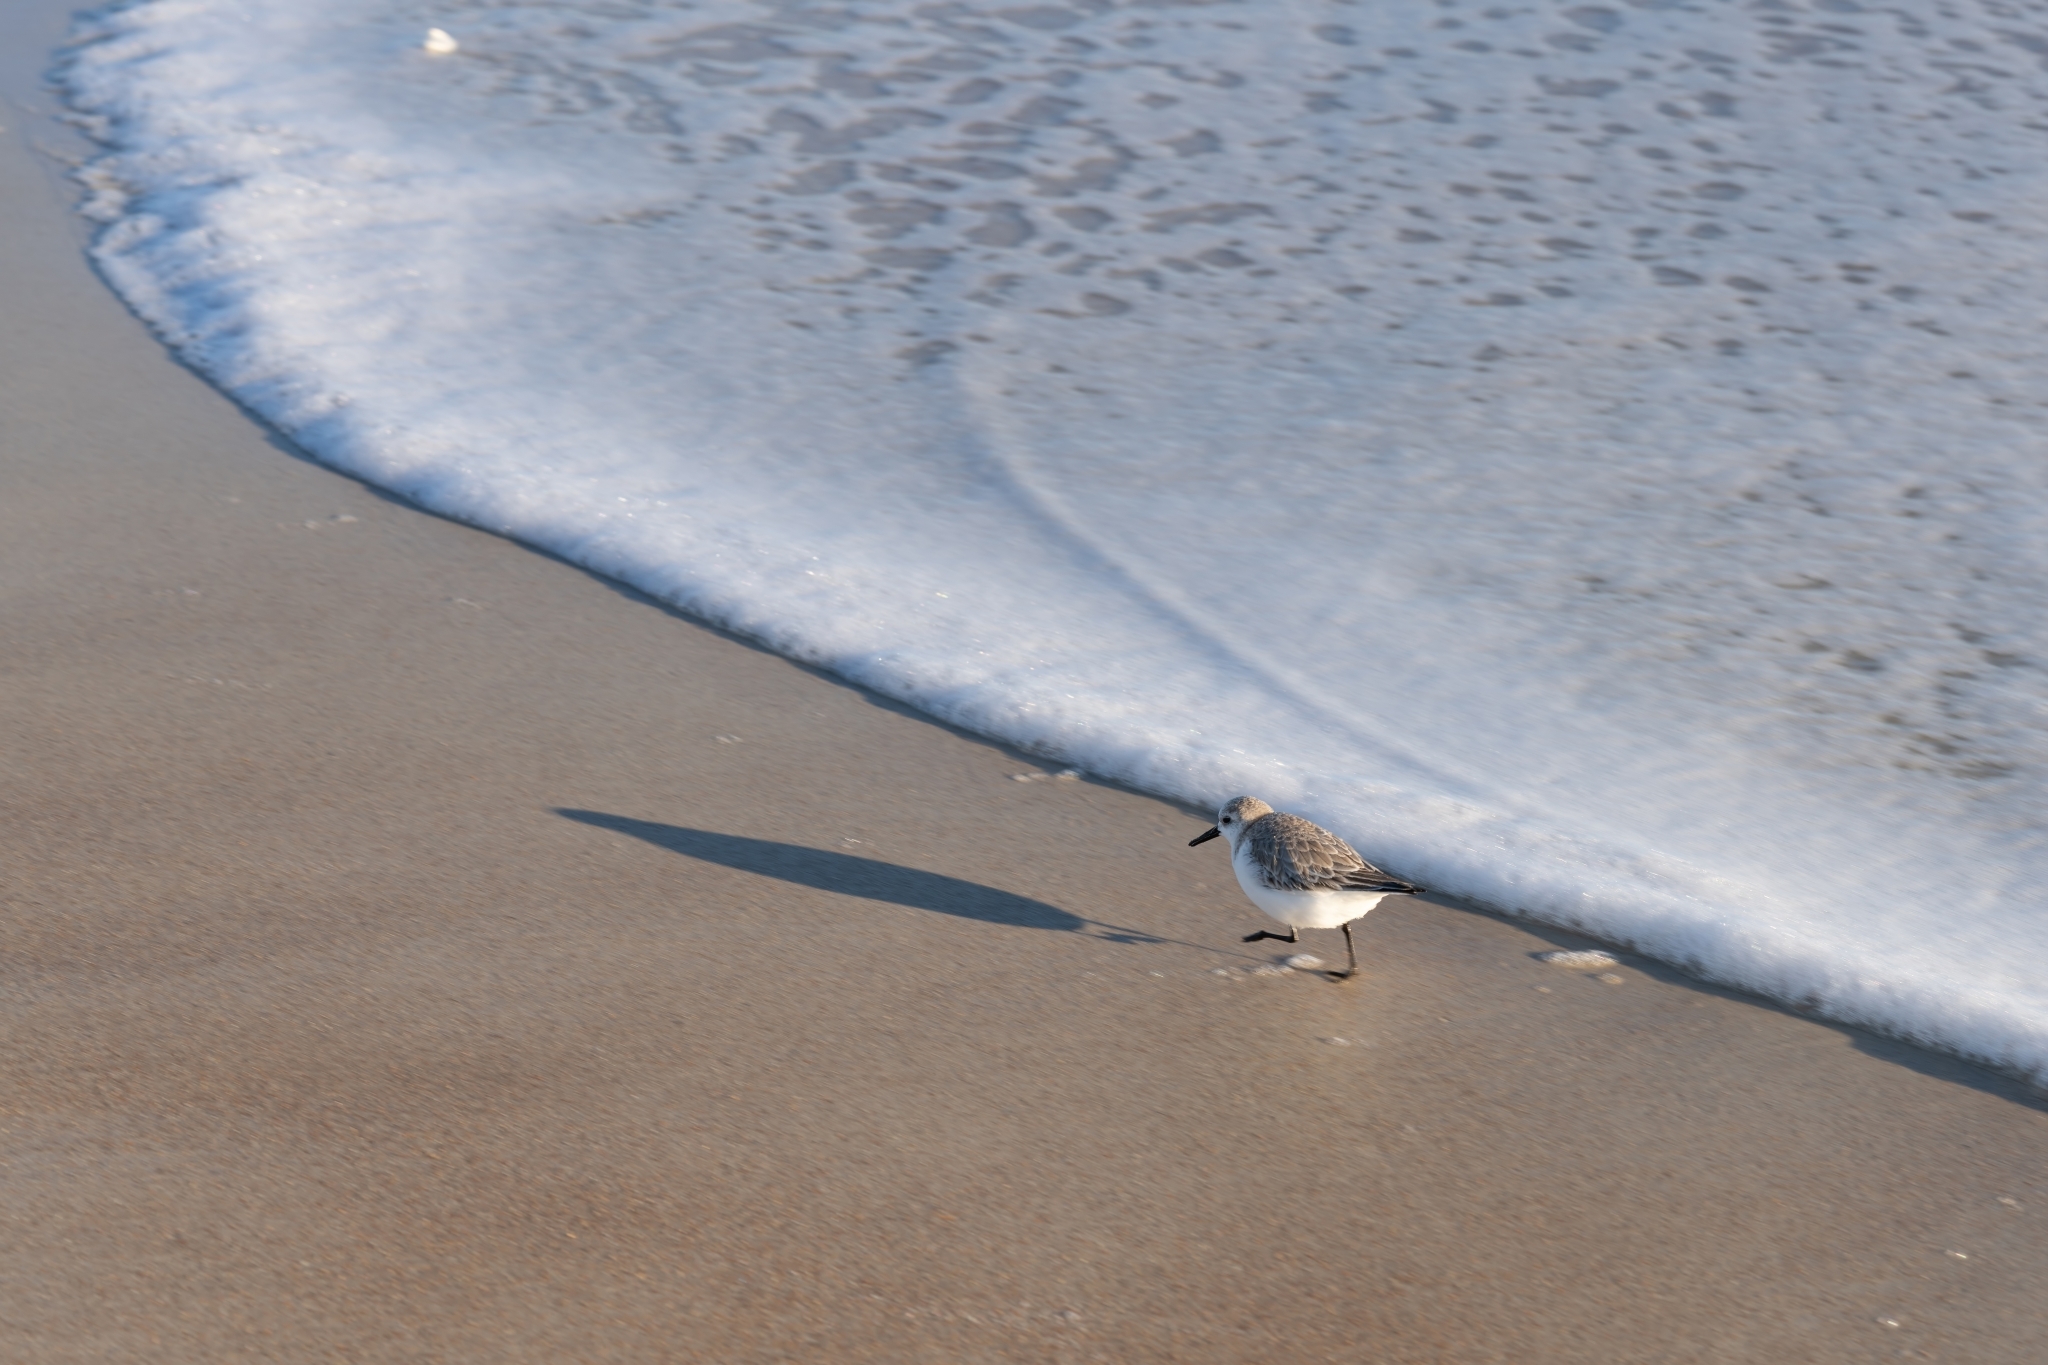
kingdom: Animalia
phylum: Chordata
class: Aves
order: Charadriiformes
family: Scolopacidae
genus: Calidris
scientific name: Calidris alba
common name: Sanderling
